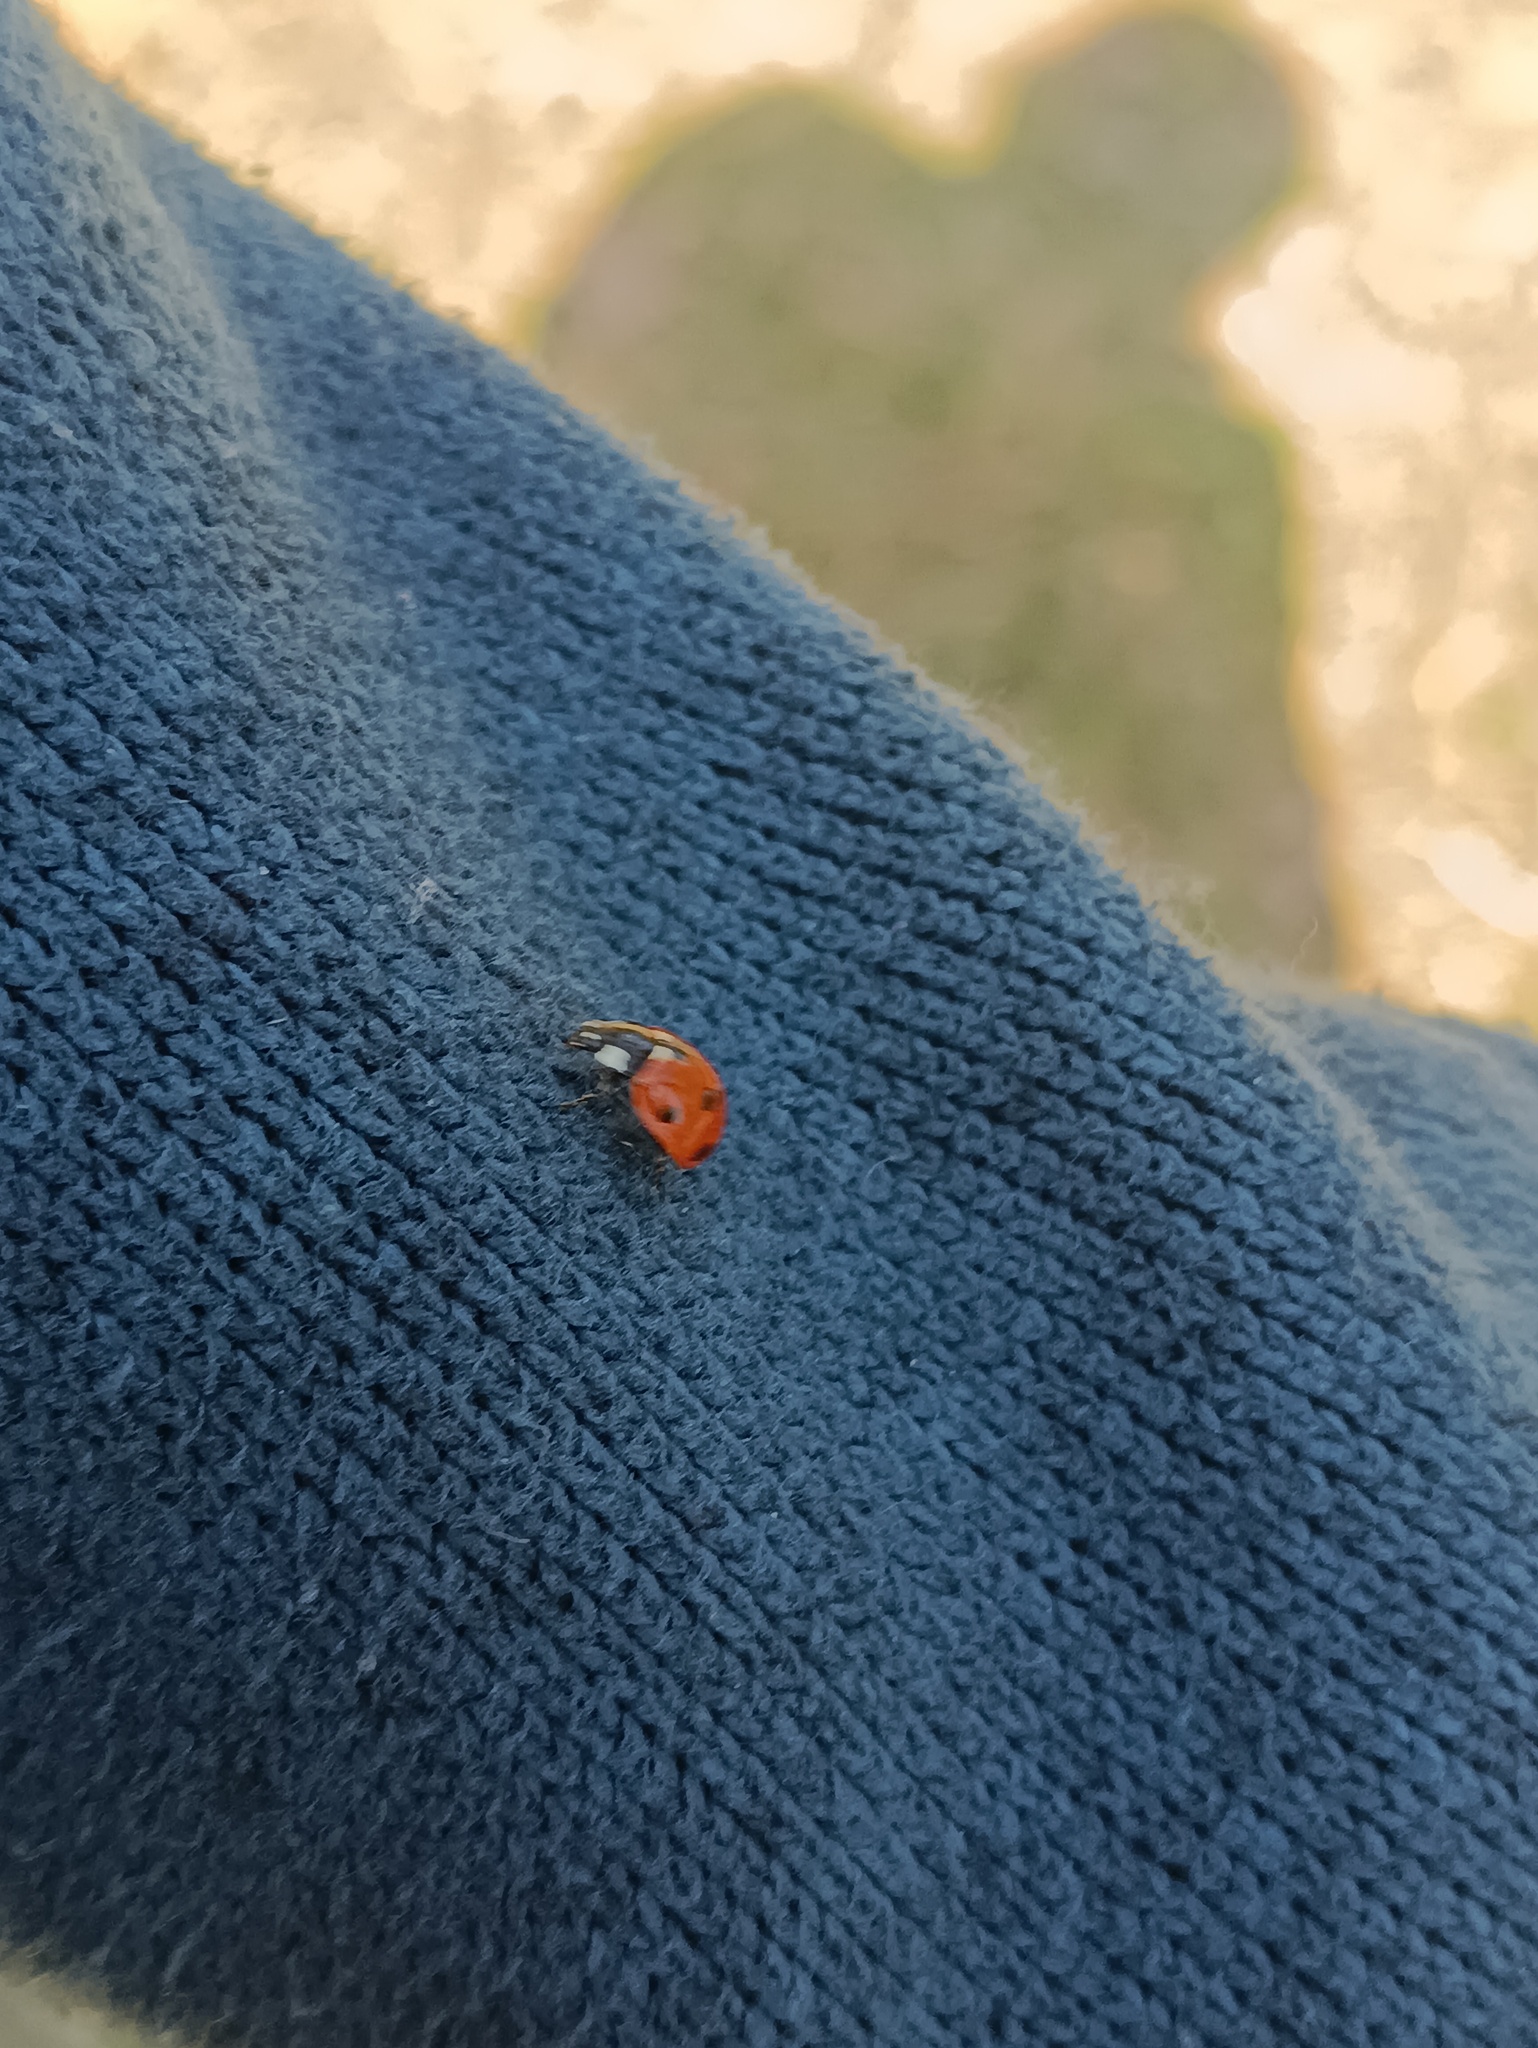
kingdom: Animalia
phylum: Arthropoda
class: Insecta
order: Coleoptera
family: Coccinellidae
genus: Coccinella
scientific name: Coccinella septempunctata
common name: Sevenspotted lady beetle
